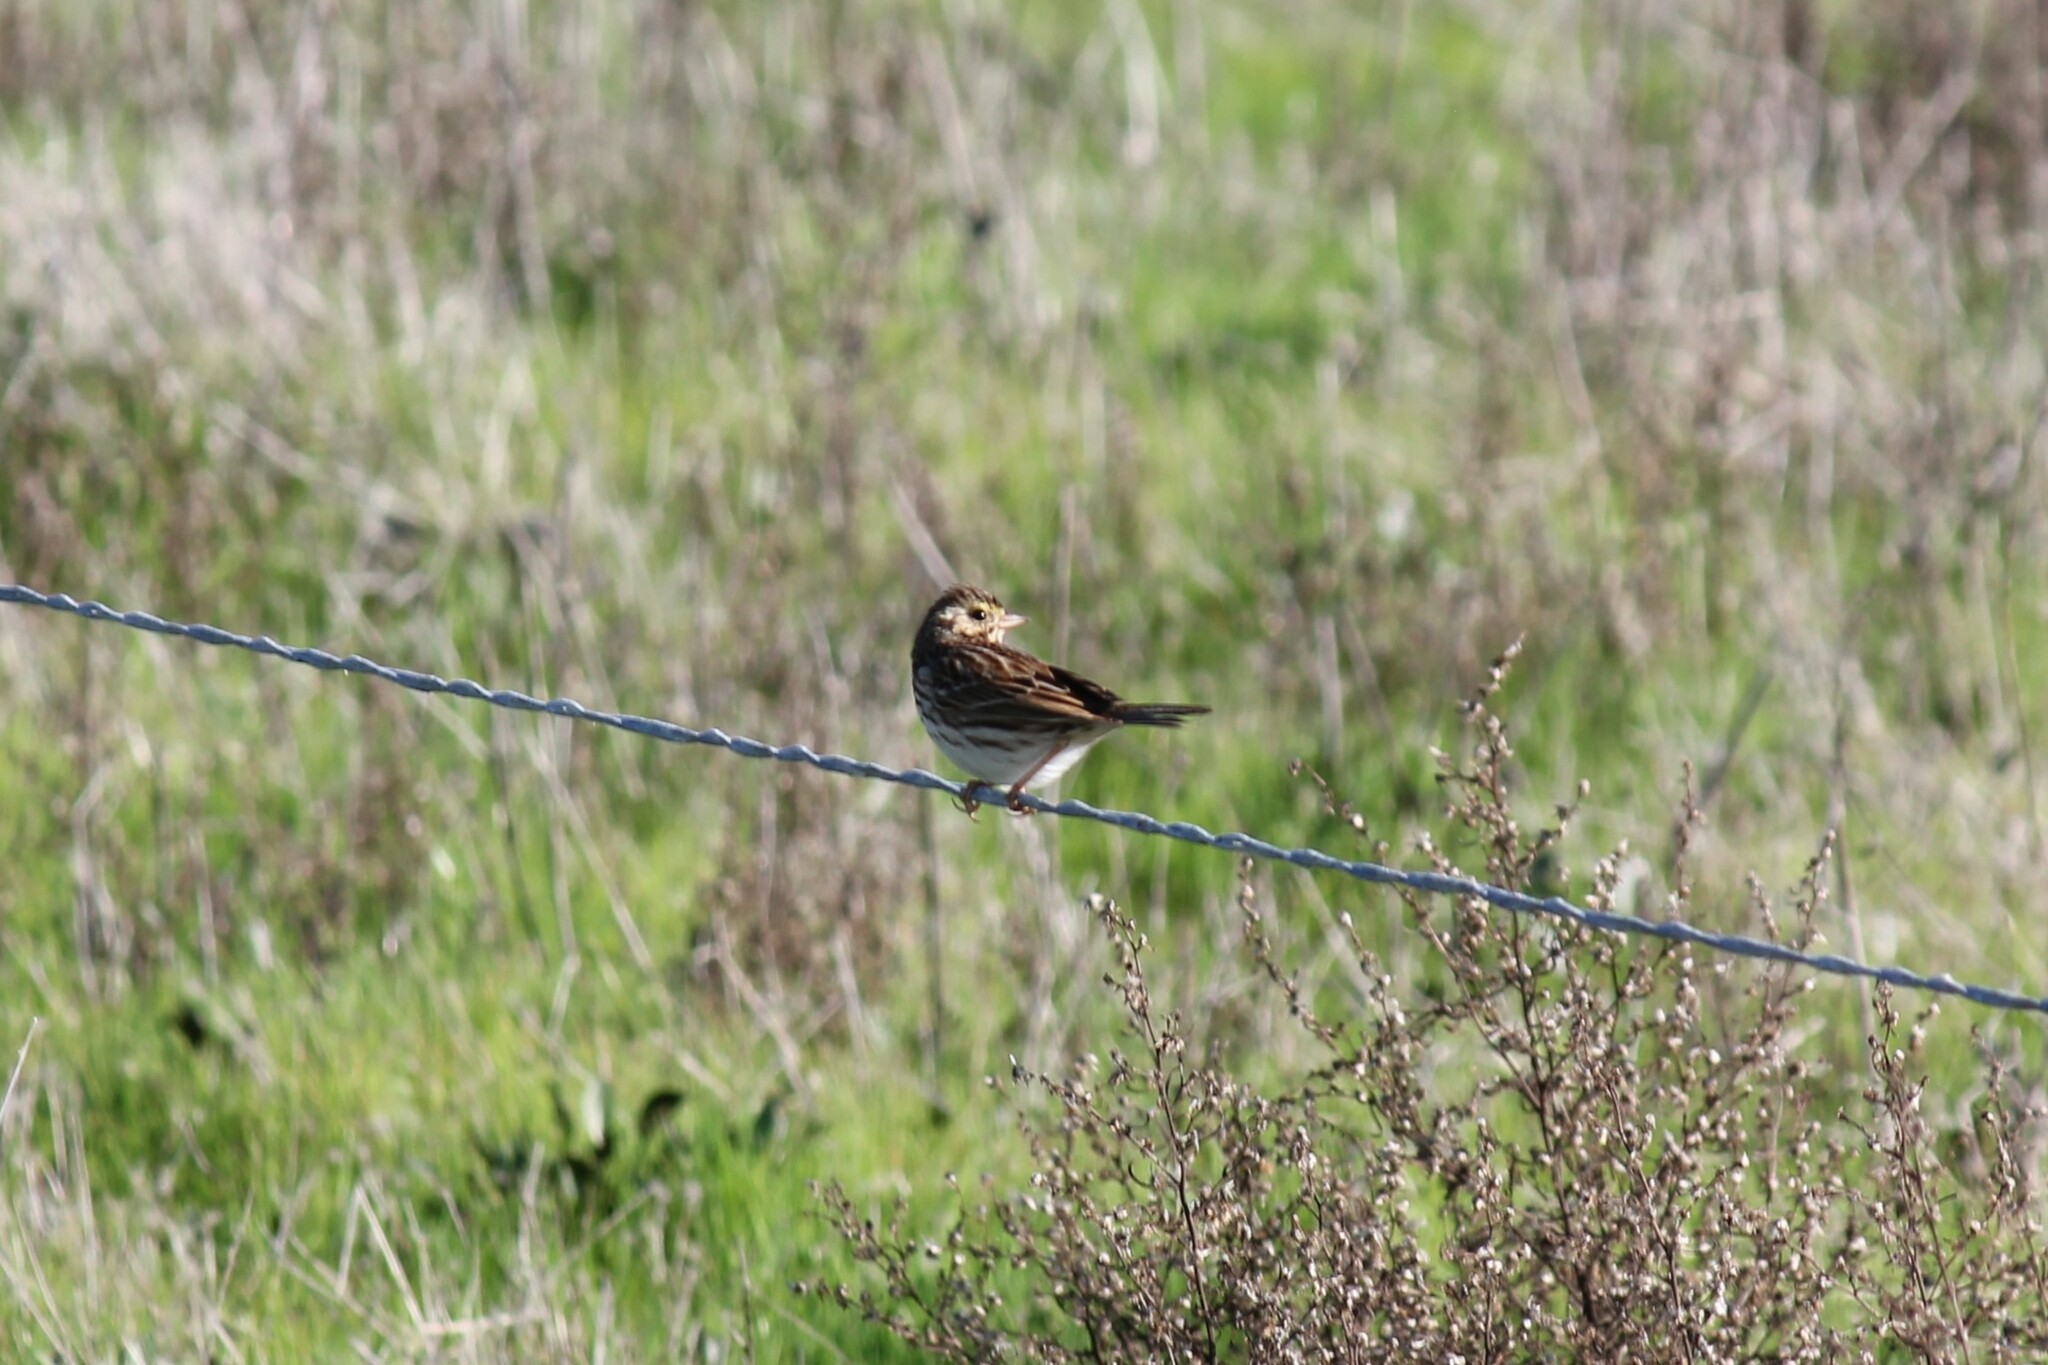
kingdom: Animalia
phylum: Chordata
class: Aves
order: Passeriformes
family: Passerellidae
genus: Passerculus
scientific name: Passerculus sandwichensis
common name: Savannah sparrow
